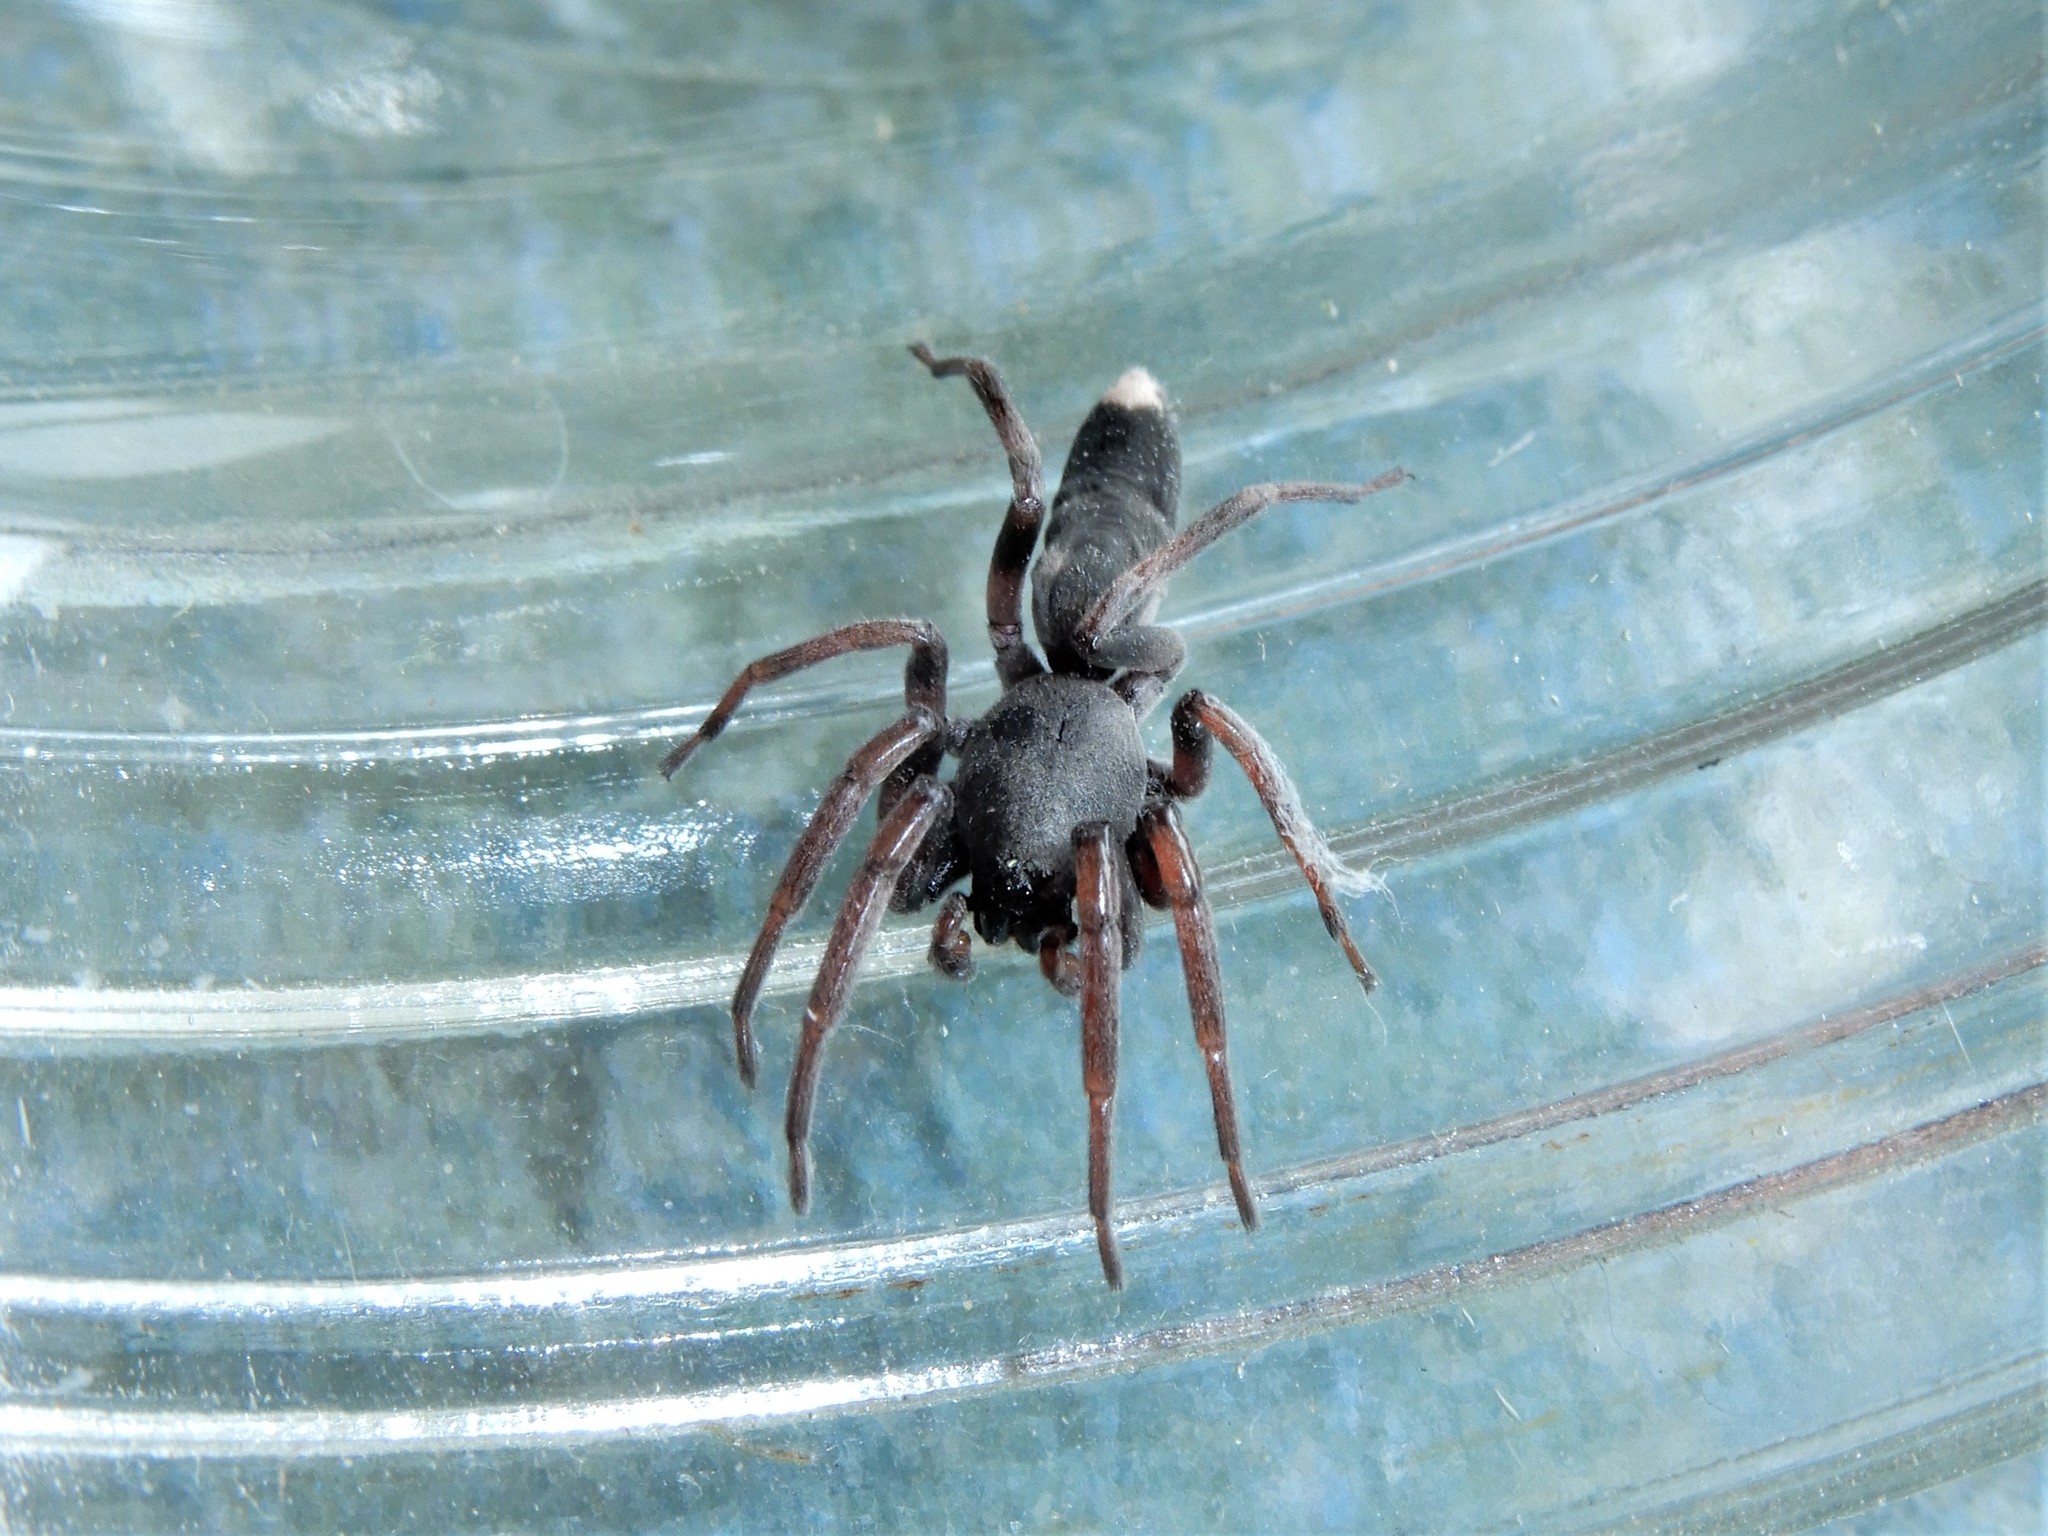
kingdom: Animalia
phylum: Arthropoda
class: Arachnida
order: Araneae
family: Lamponidae
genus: Lampona
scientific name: Lampona murina
